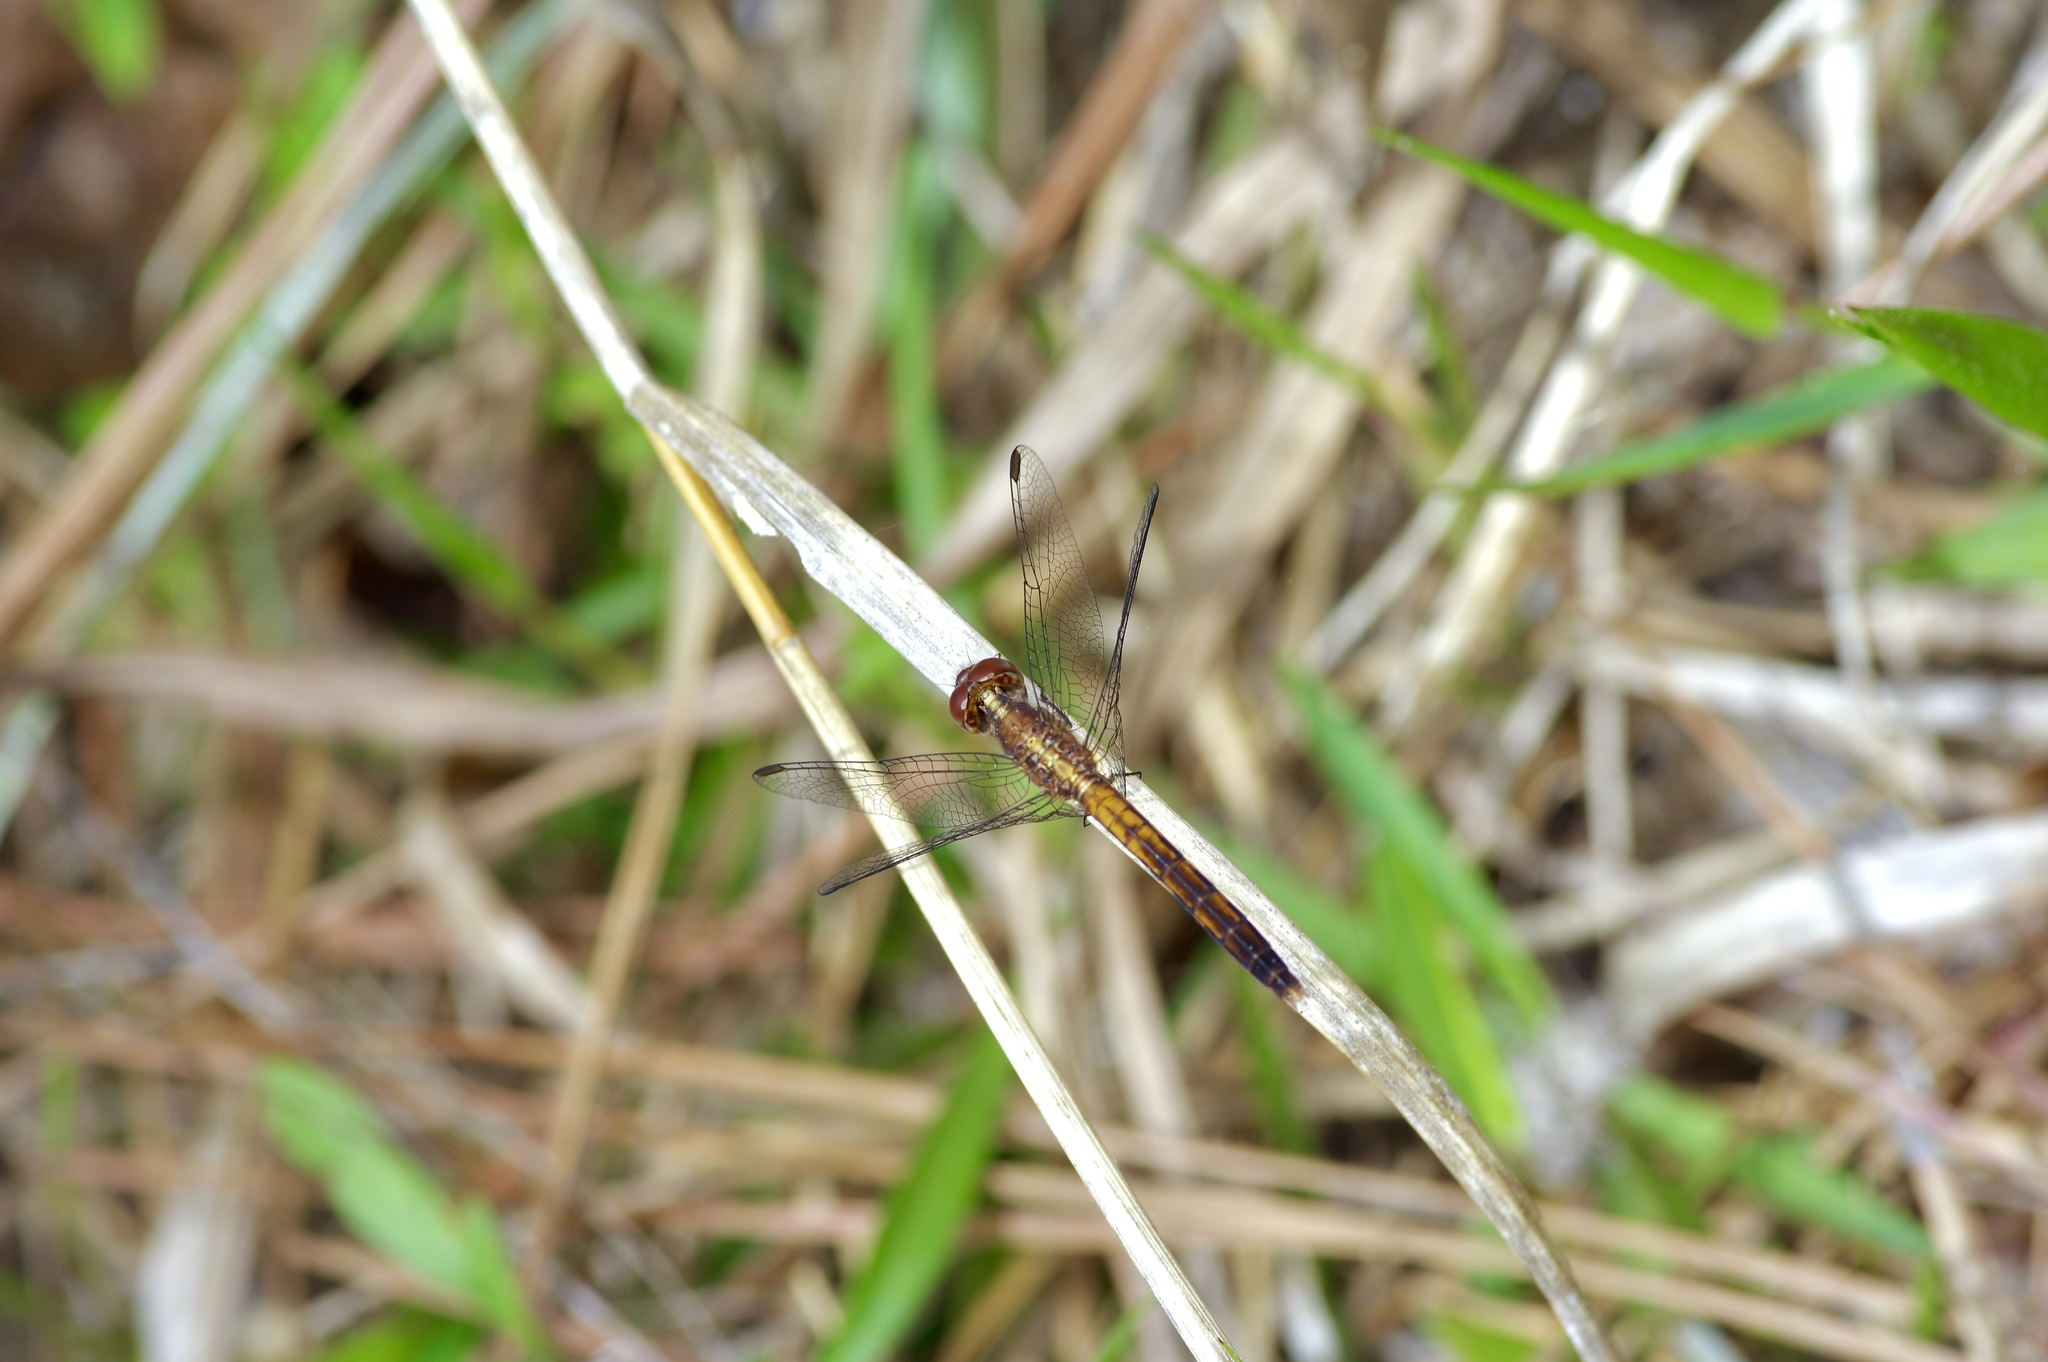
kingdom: Animalia
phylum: Arthropoda
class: Insecta
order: Odonata
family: Libellulidae
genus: Erythrodiplax
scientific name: Erythrodiplax minuscula
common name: Little blue dragonlet
